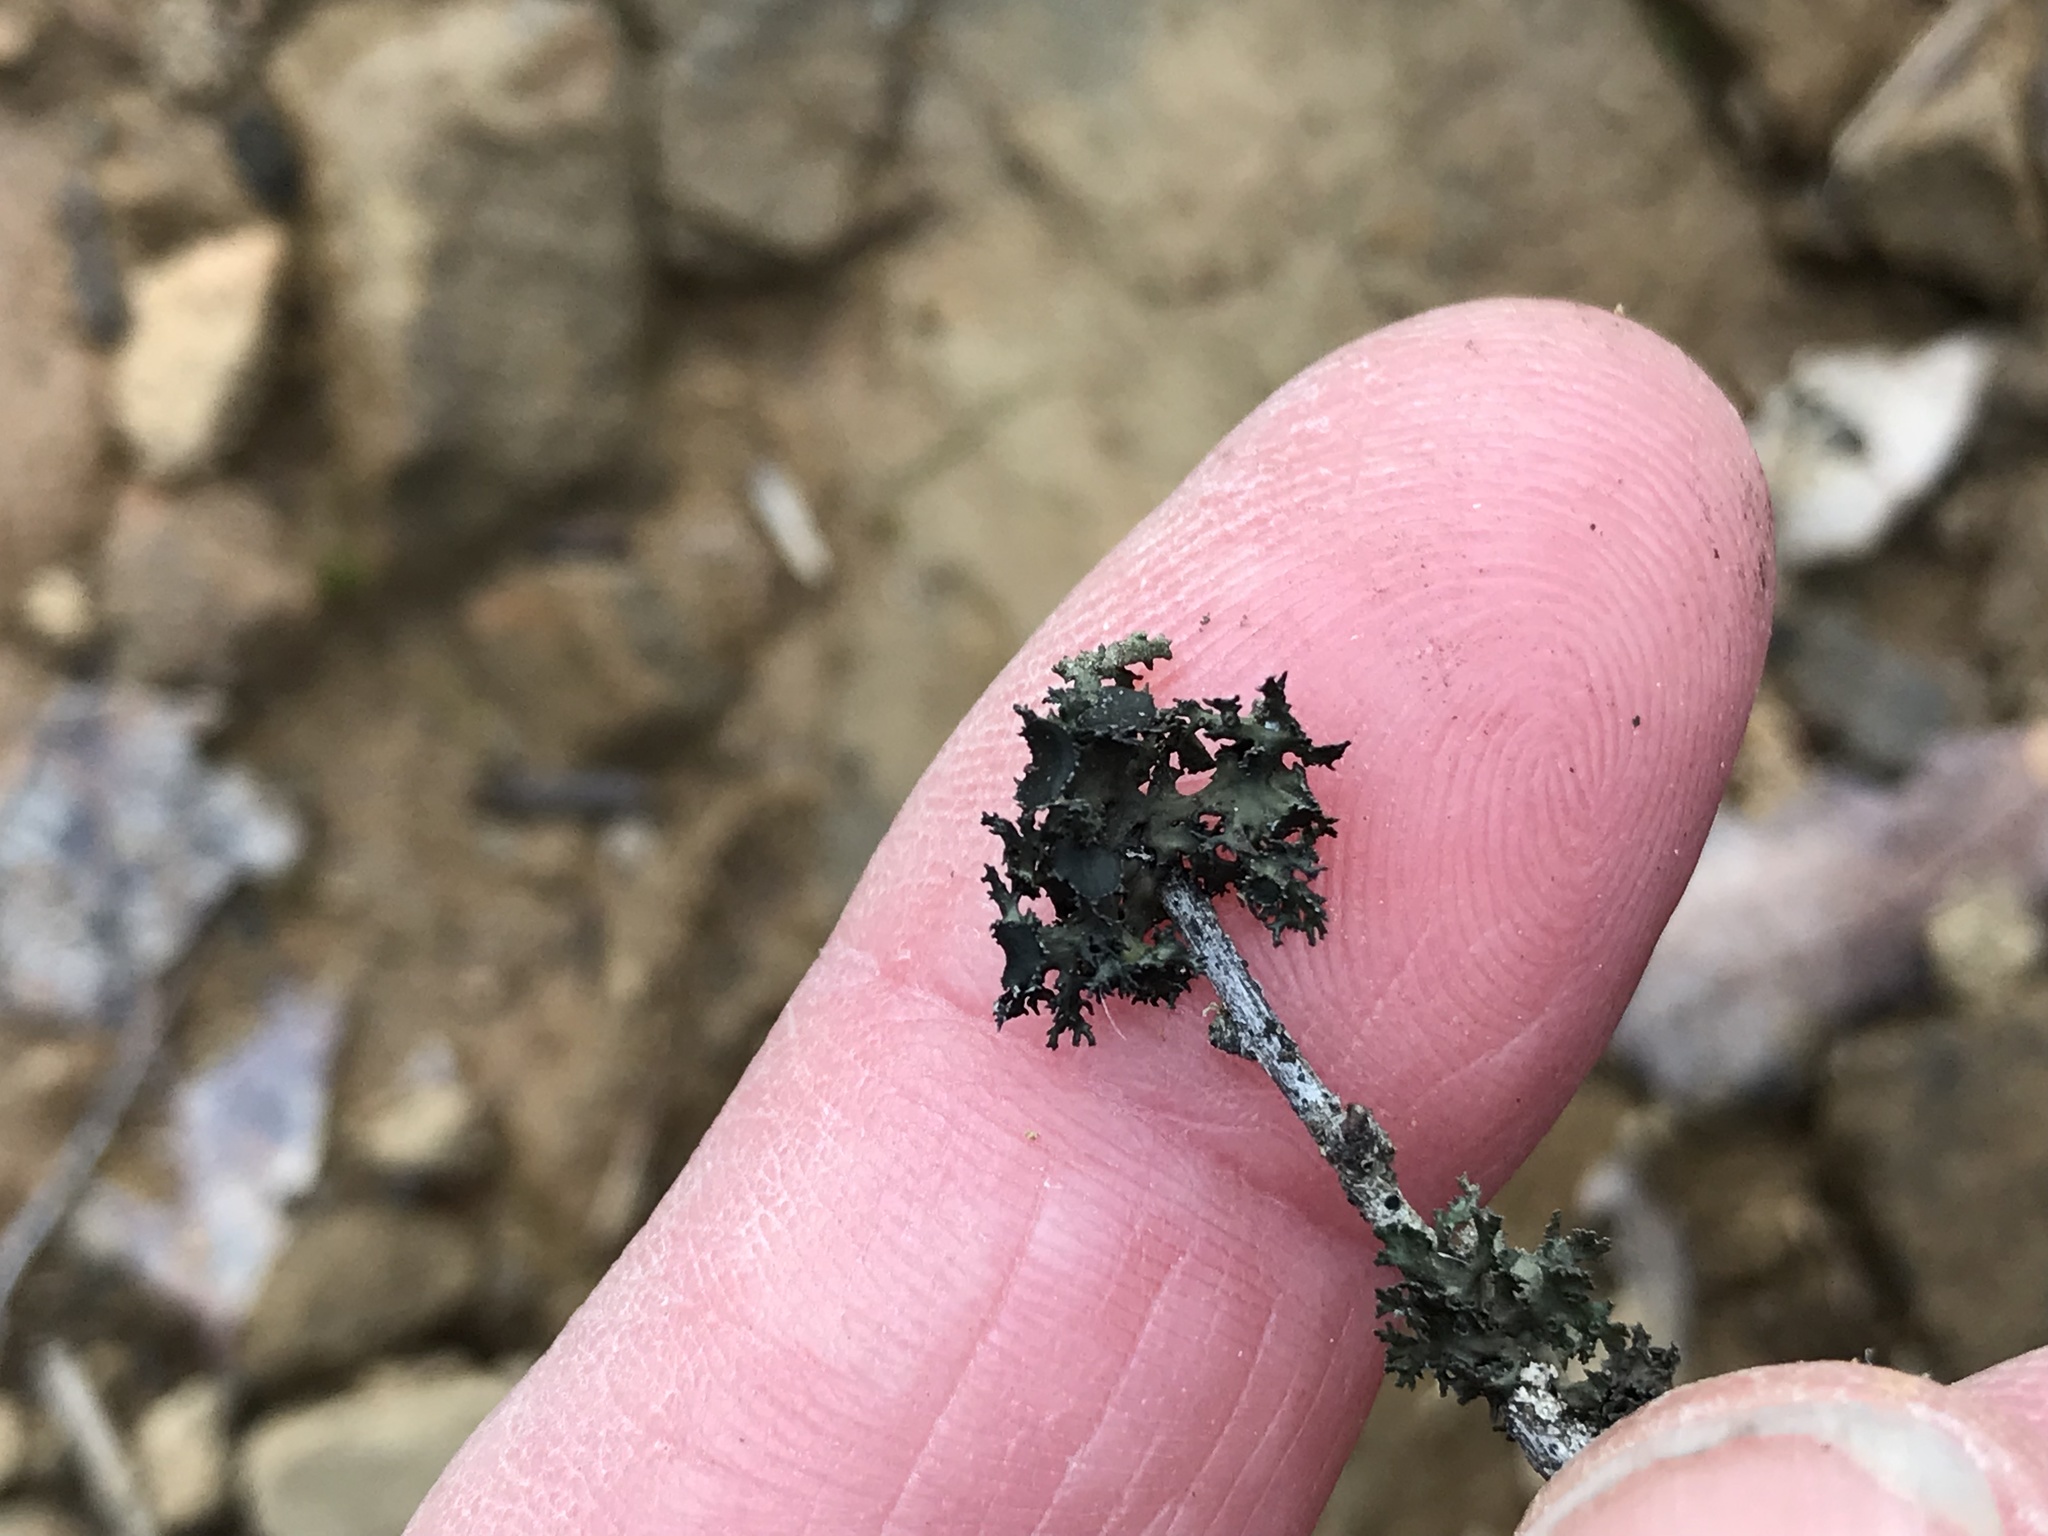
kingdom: Fungi
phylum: Ascomycota
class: Lecanoromycetes
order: Lecanorales
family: Parmeliaceae
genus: Nephromopsis
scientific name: Nephromopsis merrillii
